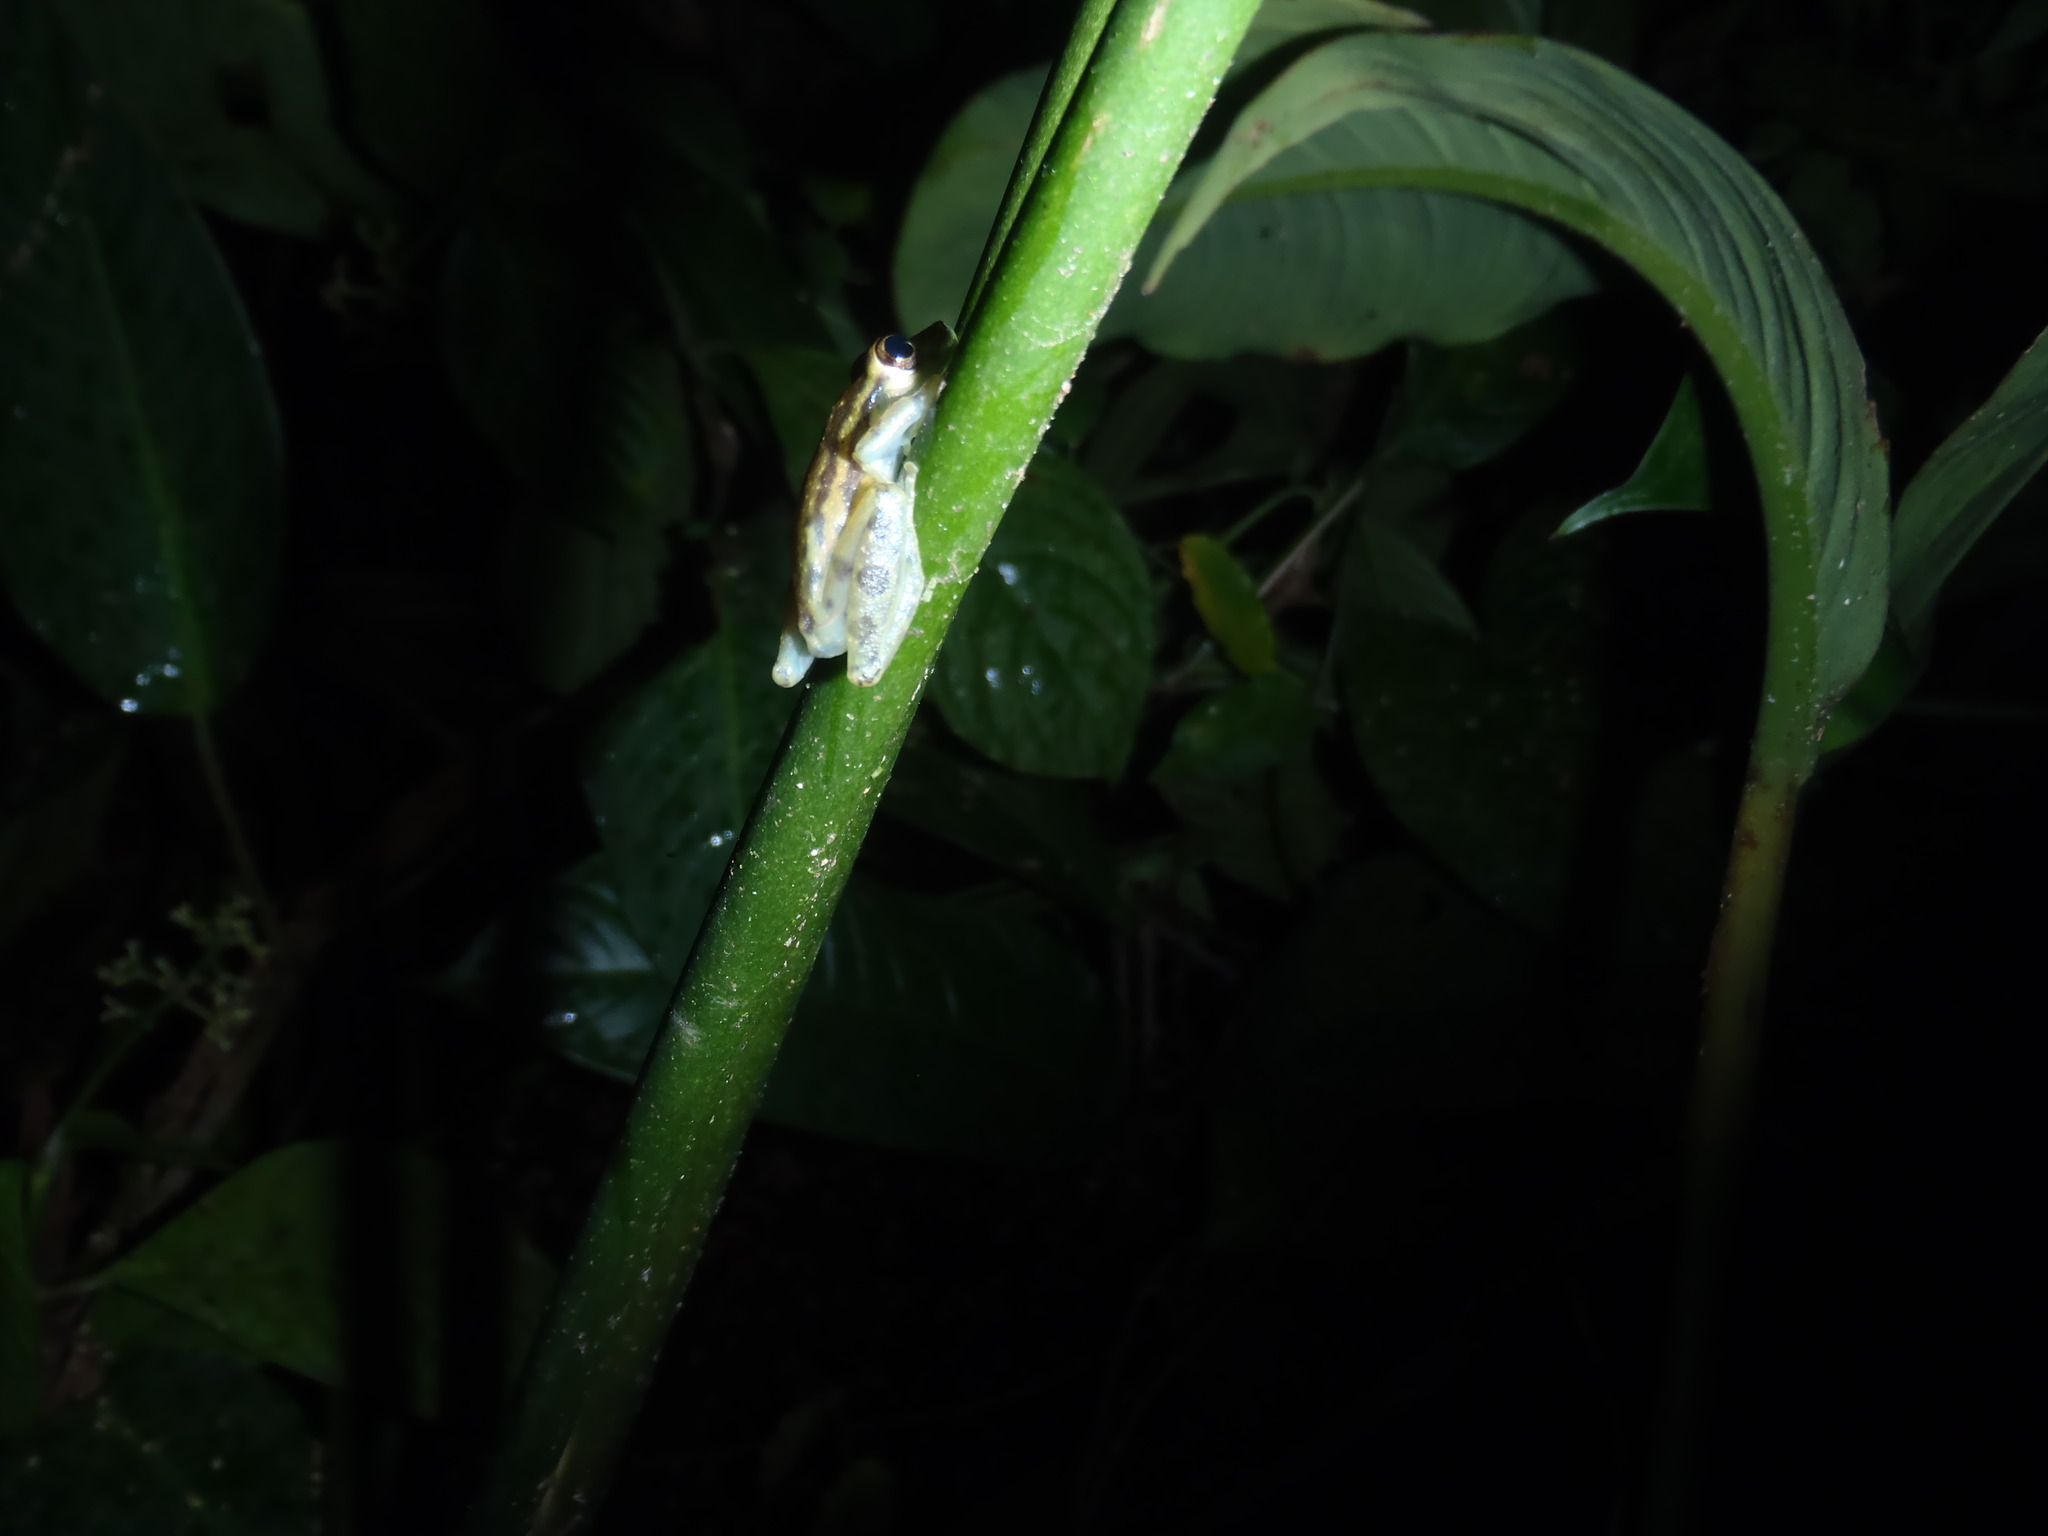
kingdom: Animalia
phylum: Chordata
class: Amphibia
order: Anura
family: Hylidae
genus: Scinax
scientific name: Scinax elaeochroa
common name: Sipurio snouted treefrog
